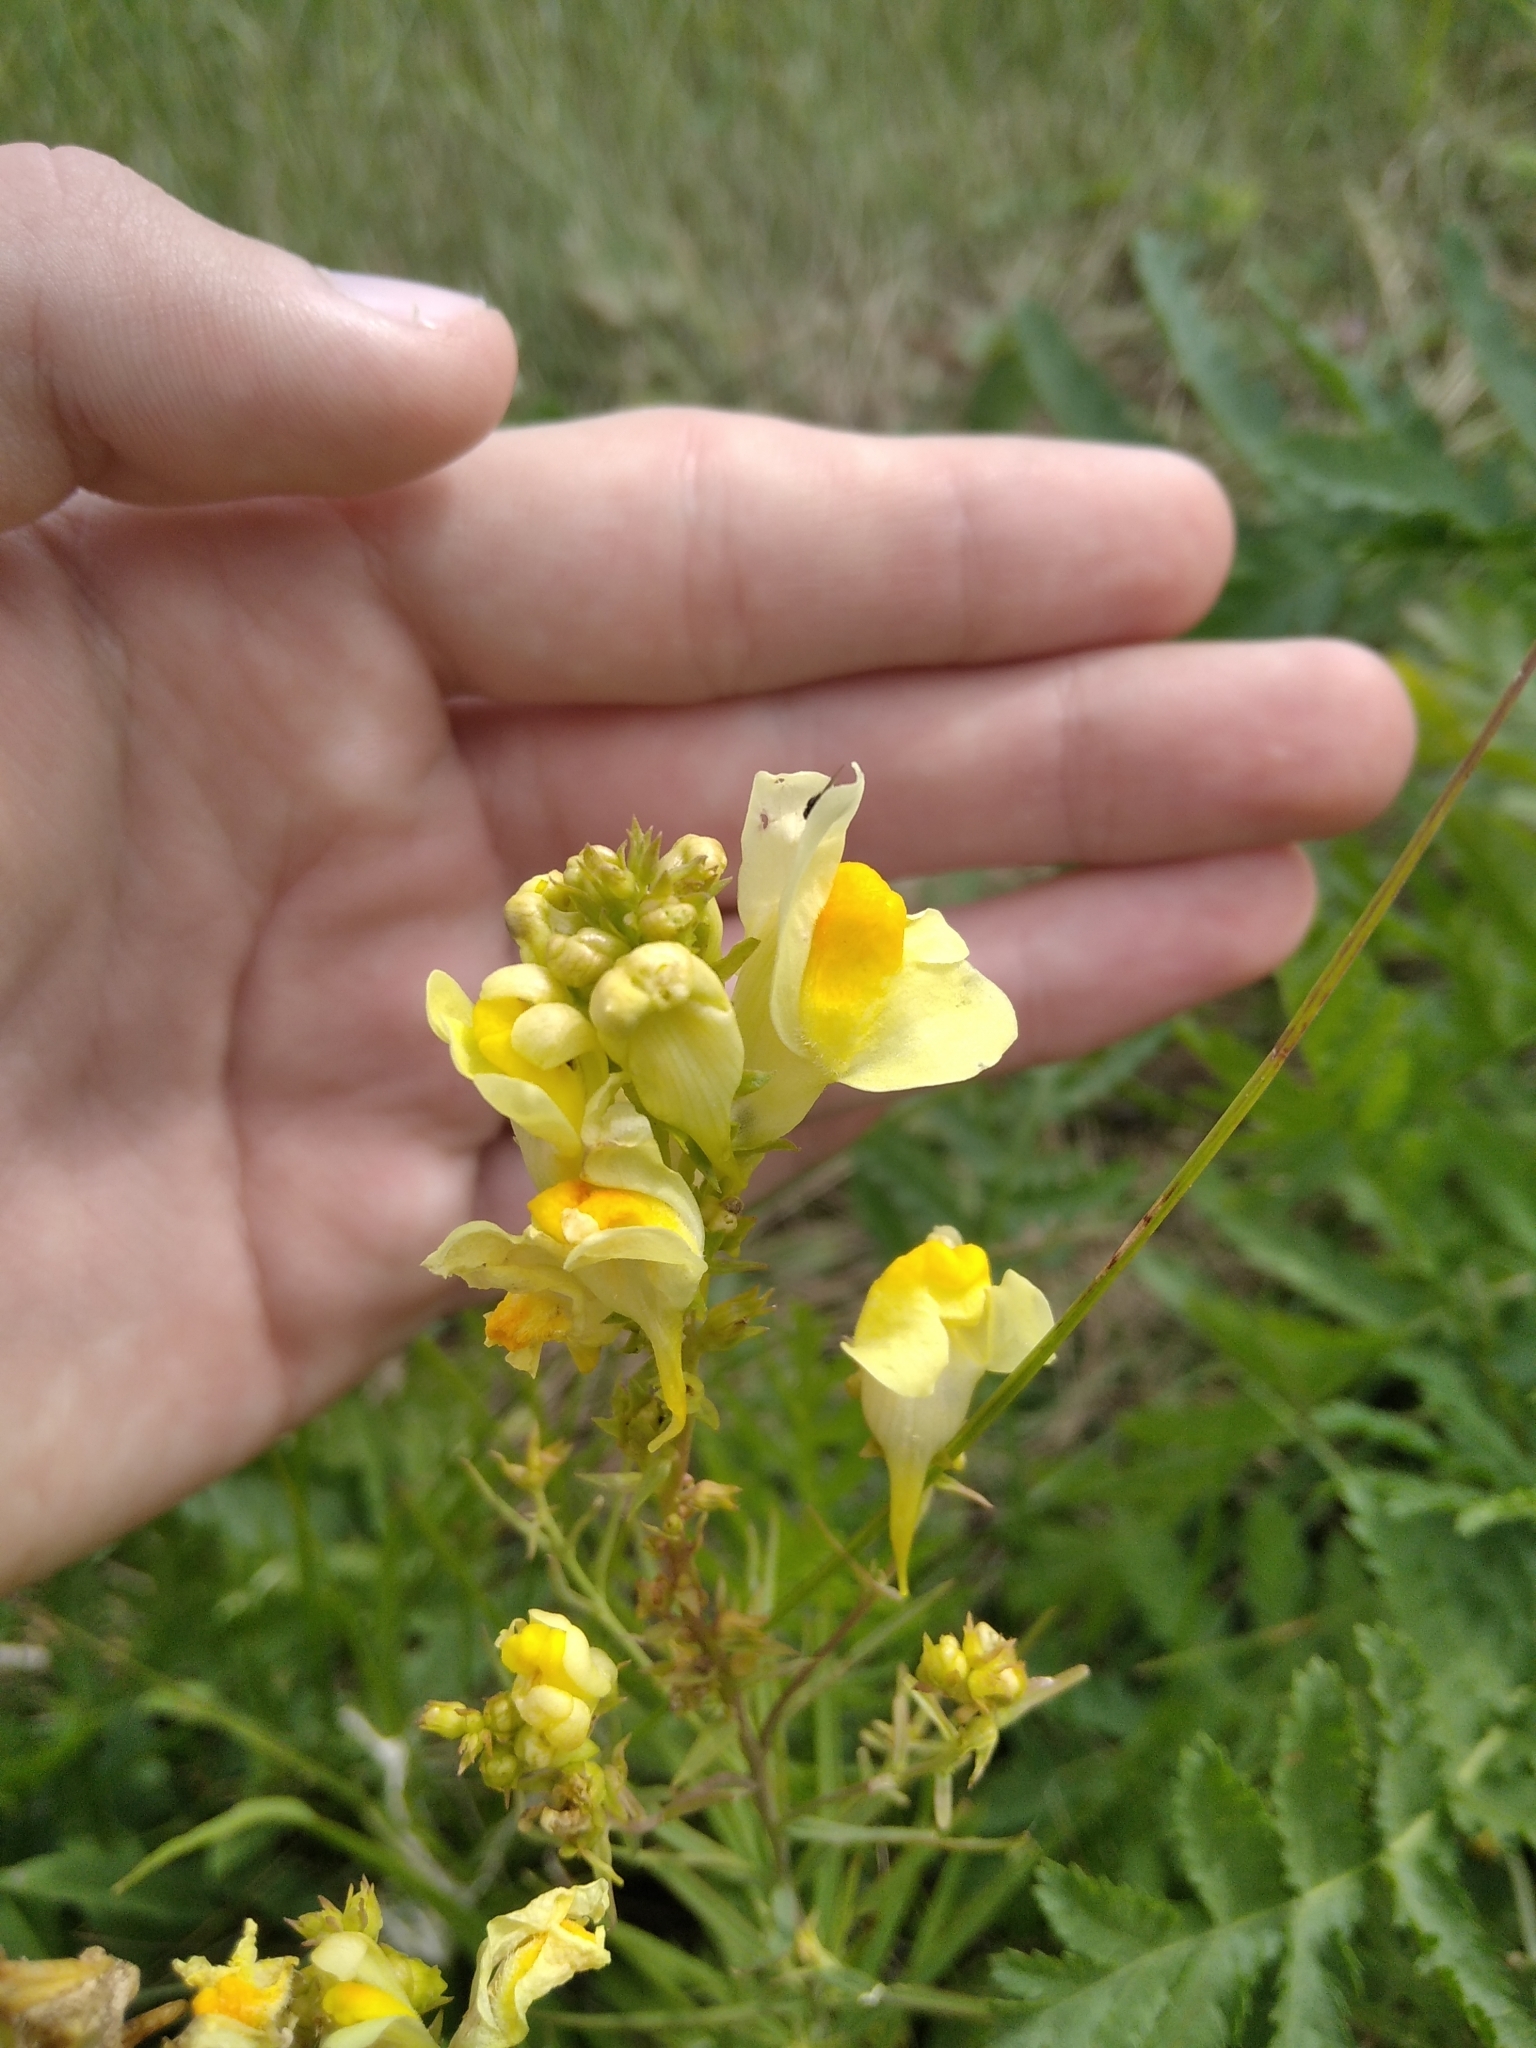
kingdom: Plantae
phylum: Tracheophyta
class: Magnoliopsida
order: Lamiales
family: Plantaginaceae
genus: Linaria
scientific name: Linaria vulgaris
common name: Butter and eggs
